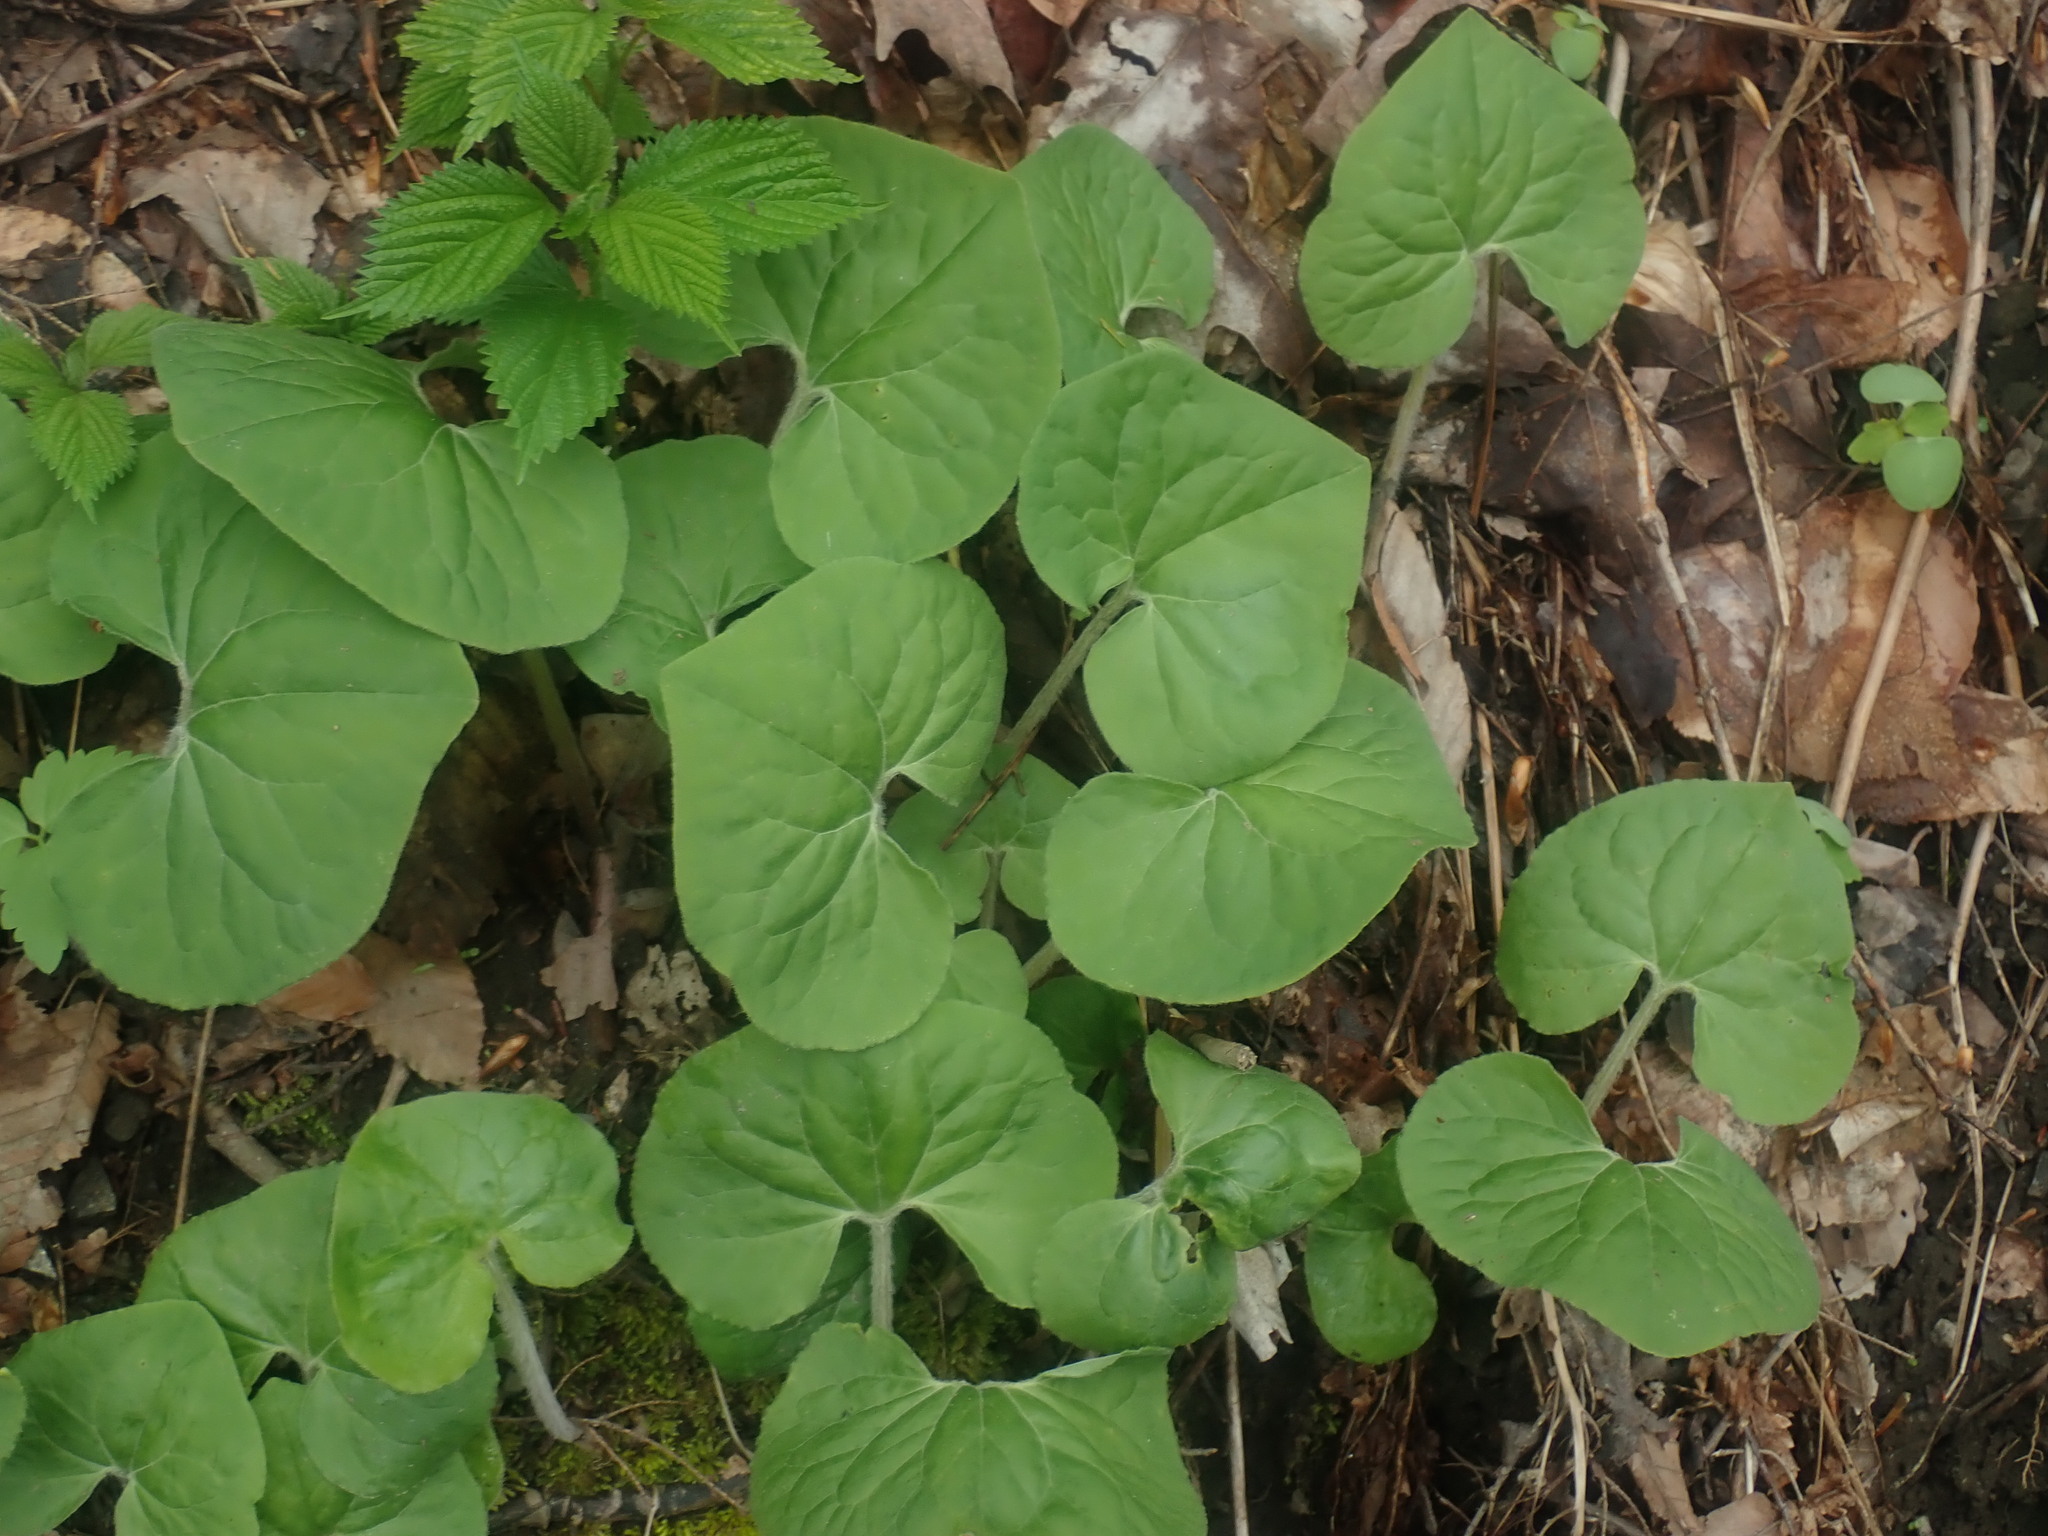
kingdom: Plantae
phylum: Tracheophyta
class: Magnoliopsida
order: Piperales
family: Aristolochiaceae
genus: Asarum
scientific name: Asarum canadense
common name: Wild ginger
